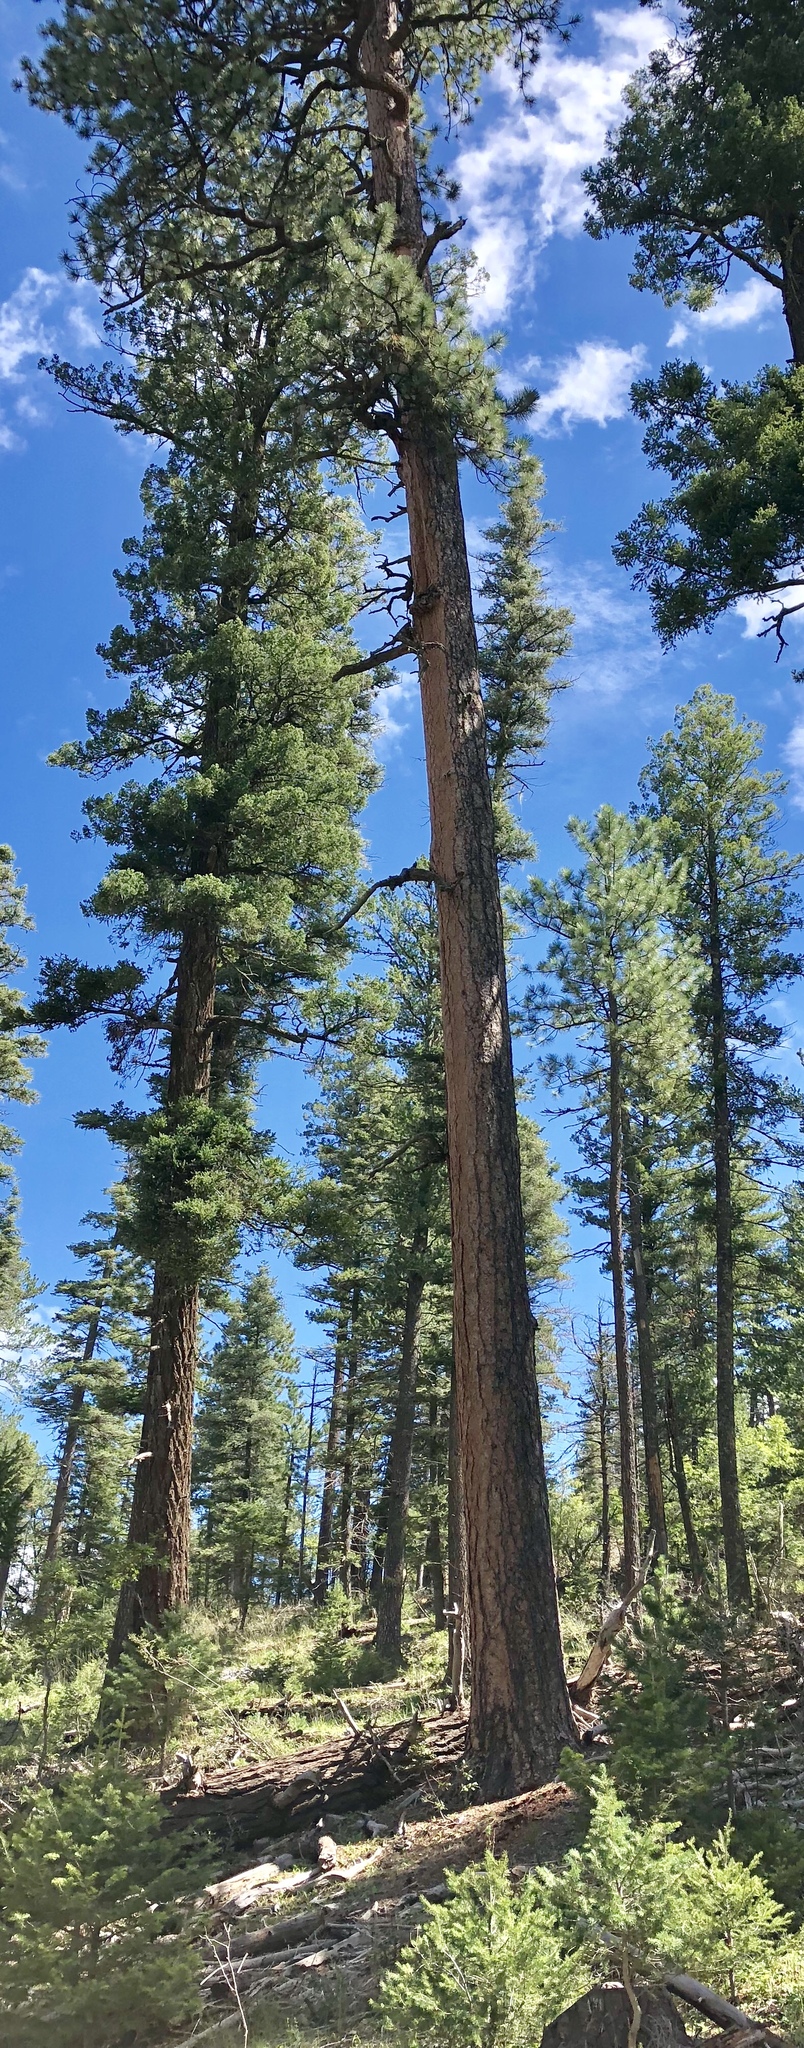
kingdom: Plantae
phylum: Tracheophyta
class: Pinopsida
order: Pinales
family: Pinaceae
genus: Pinus
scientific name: Pinus ponderosa
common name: Western yellow-pine
